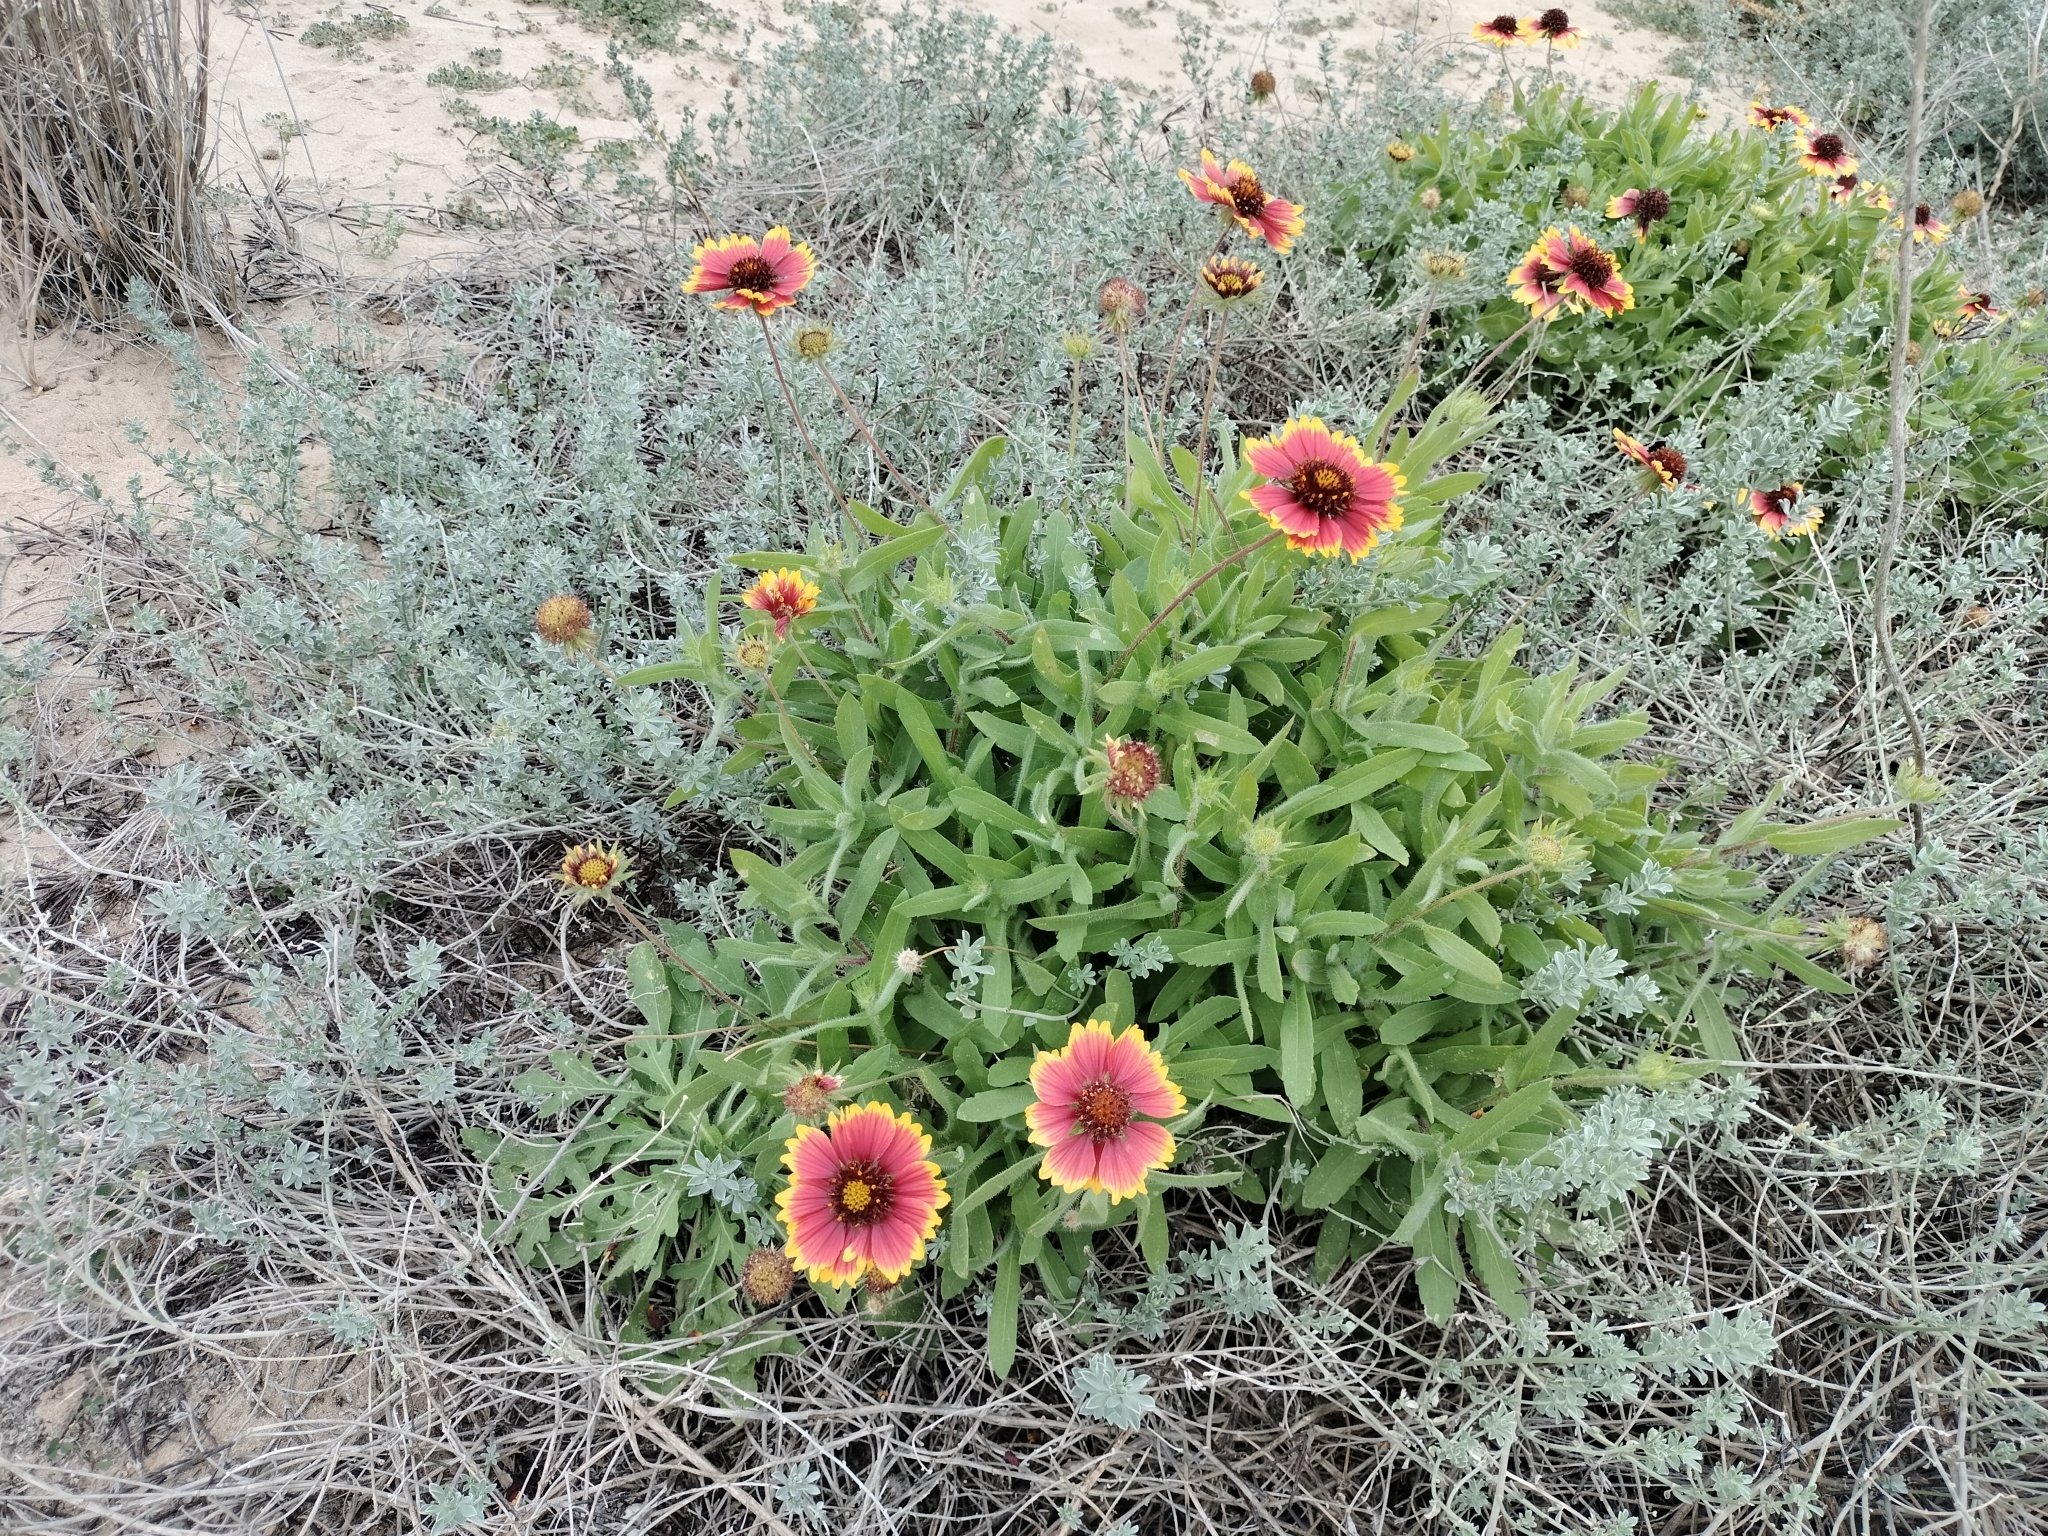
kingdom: Plantae
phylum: Tracheophyta
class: Magnoliopsida
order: Asterales
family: Asteraceae
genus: Gaillardia
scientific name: Gaillardia pulchella
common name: Firewheel
